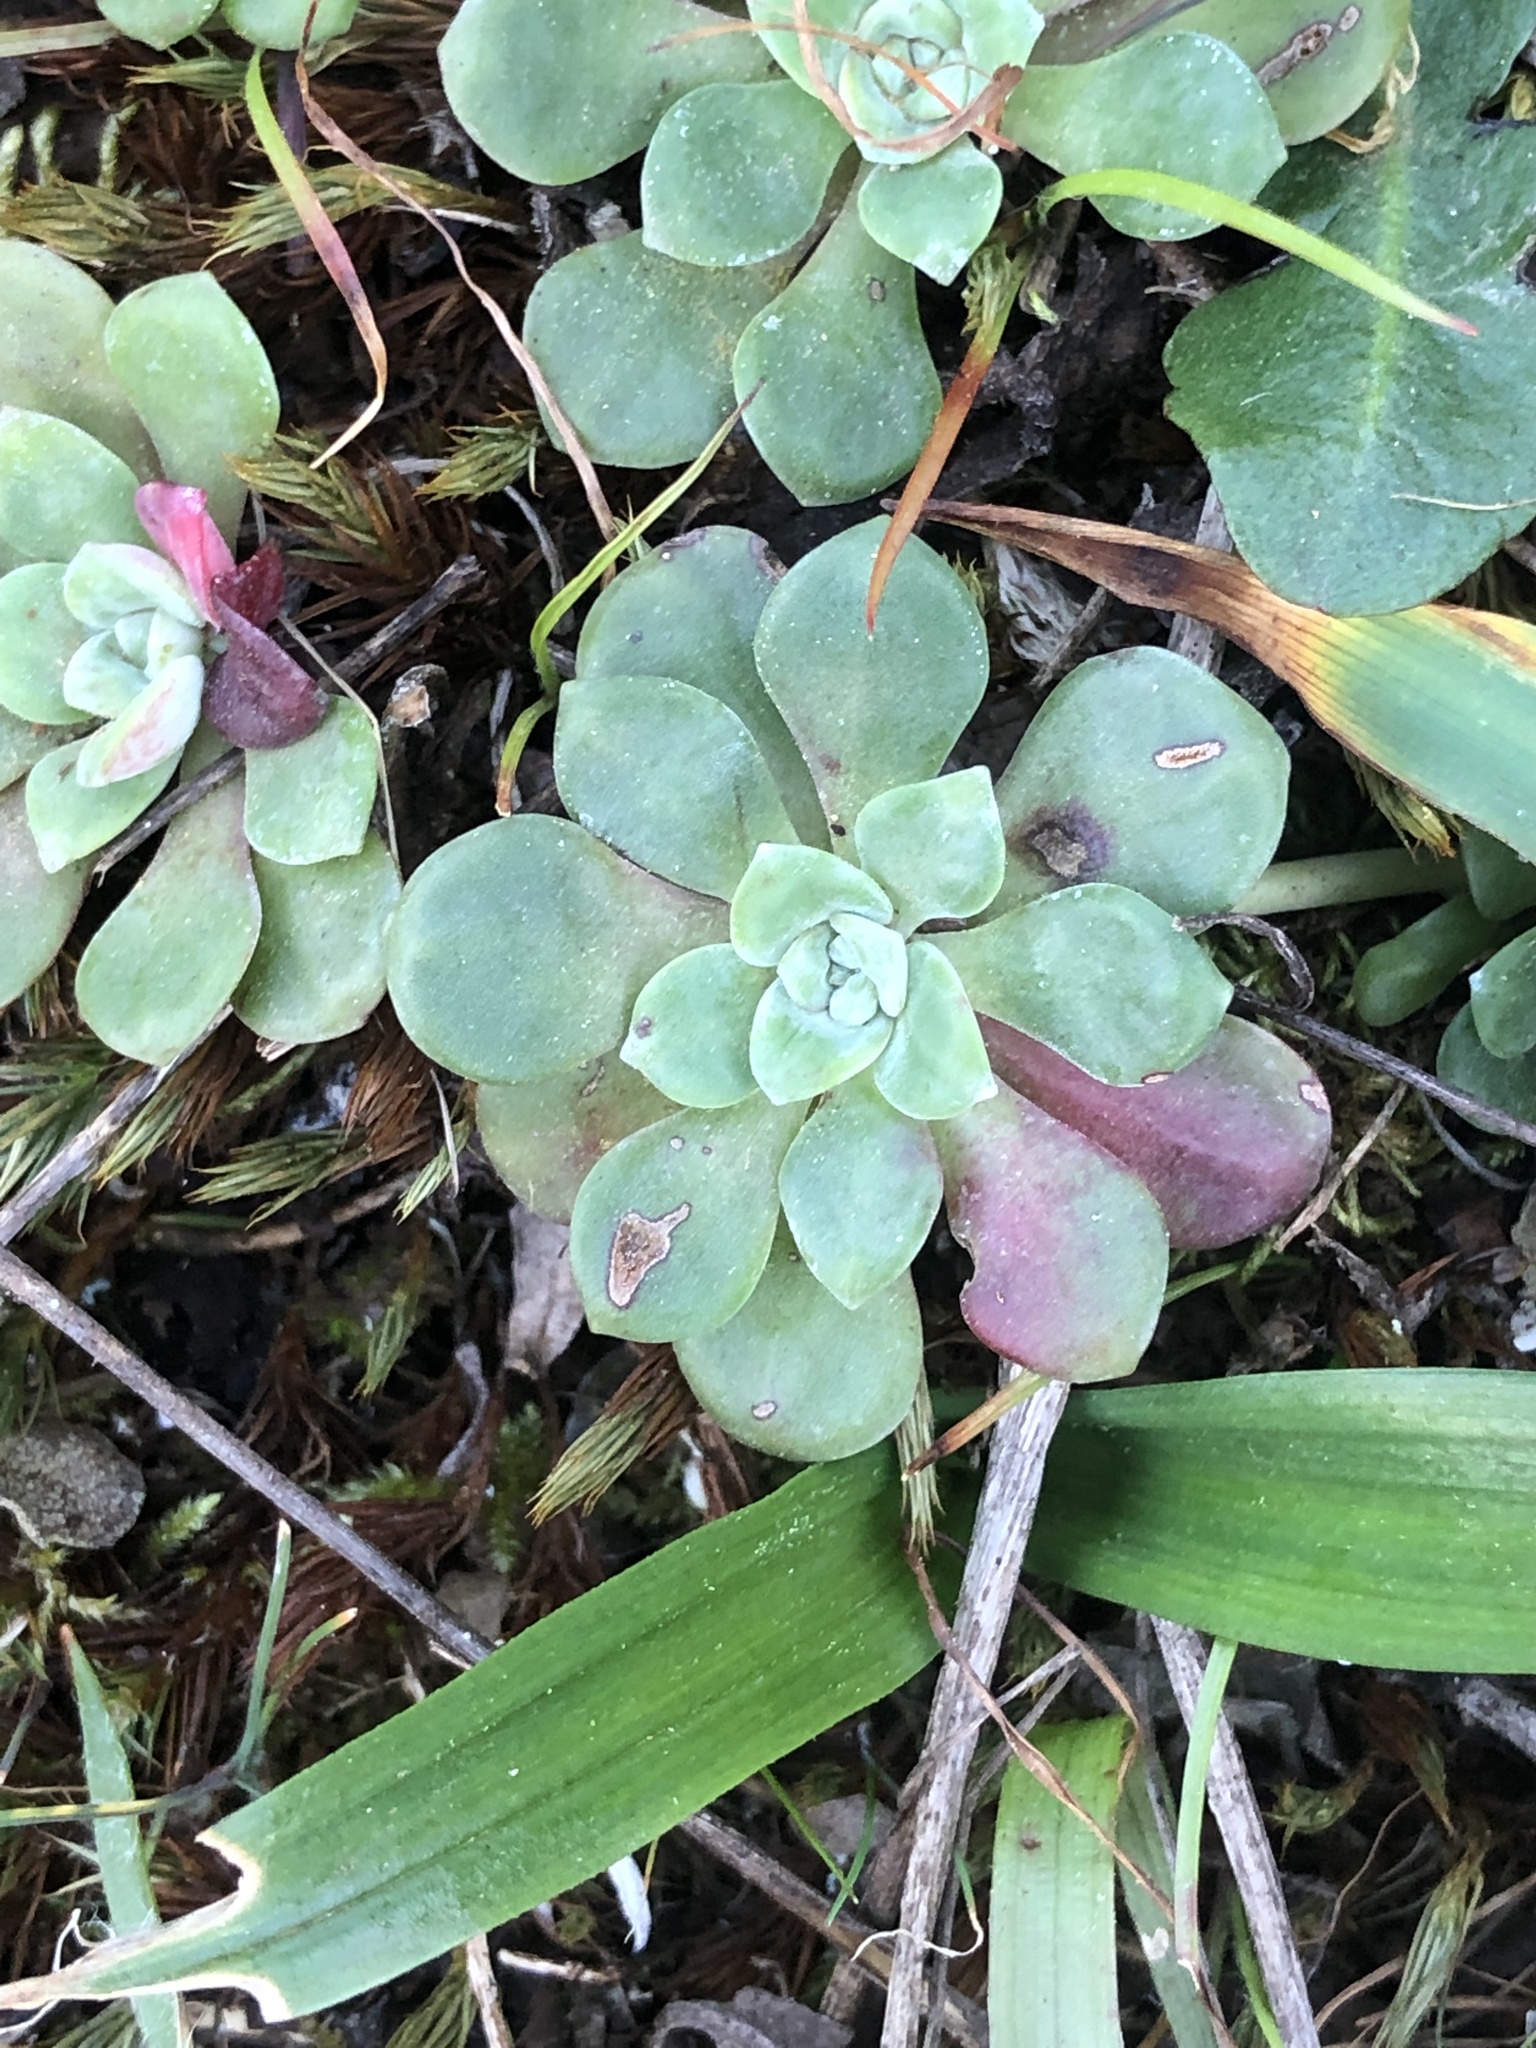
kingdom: Plantae
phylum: Tracheophyta
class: Magnoliopsida
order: Saxifragales
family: Crassulaceae
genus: Sedum
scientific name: Sedum spathulifolium
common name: Colorado stonecrop
